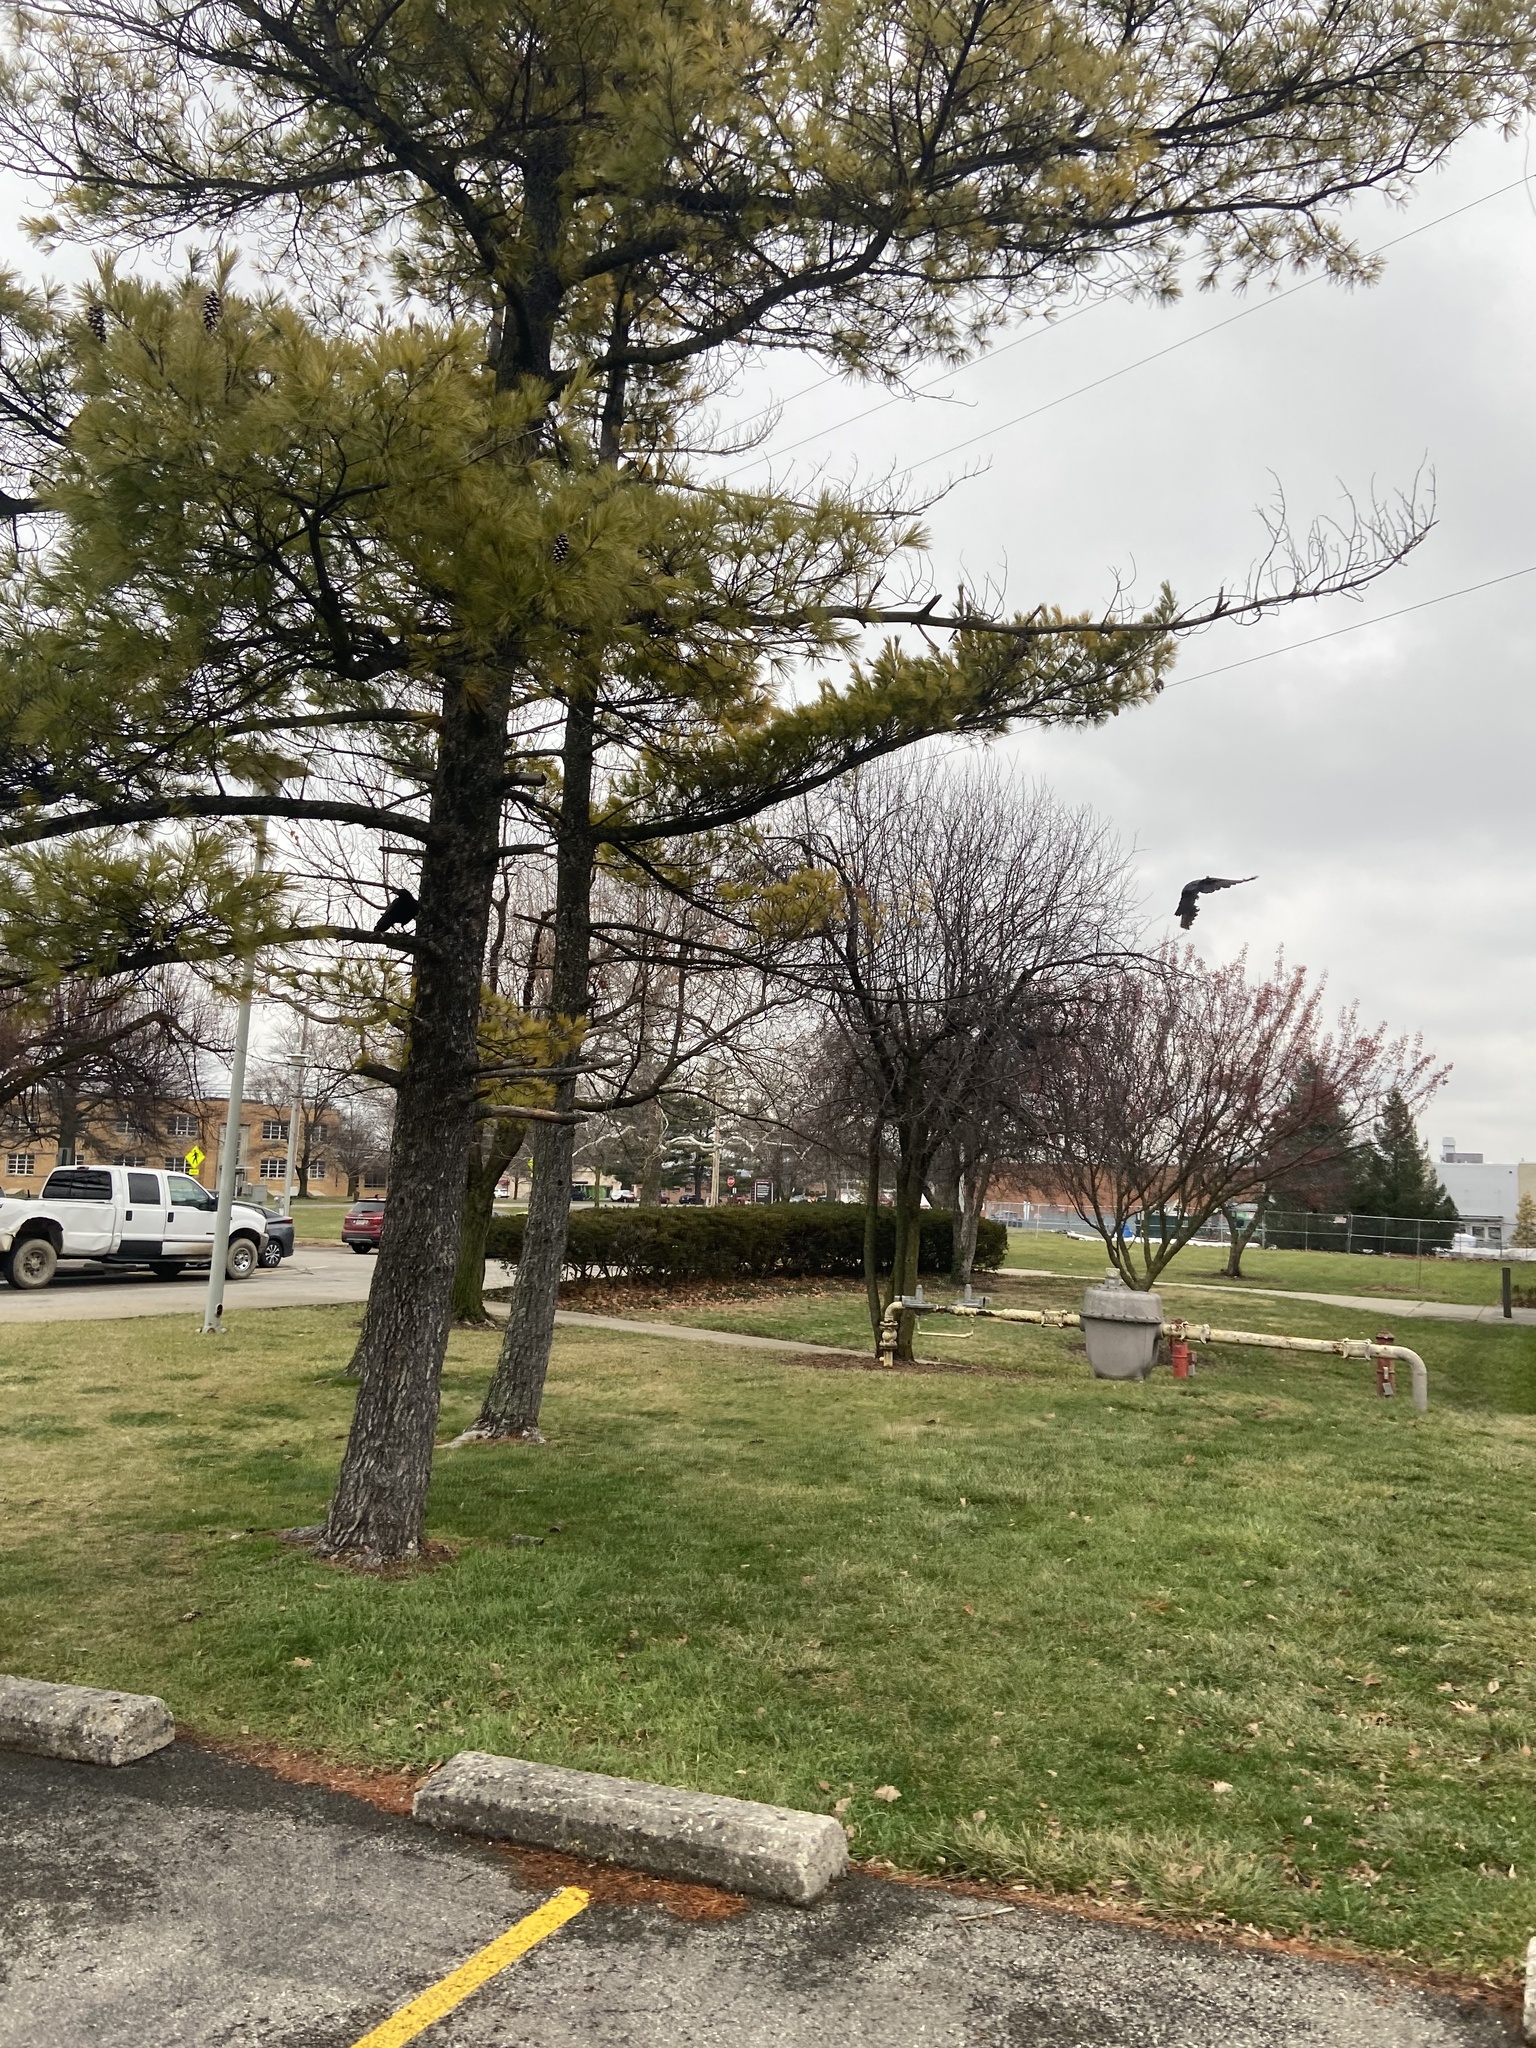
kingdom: Animalia
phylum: Chordata
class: Aves
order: Passeriformes
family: Corvidae
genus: Corvus
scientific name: Corvus brachyrhynchos
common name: American crow
